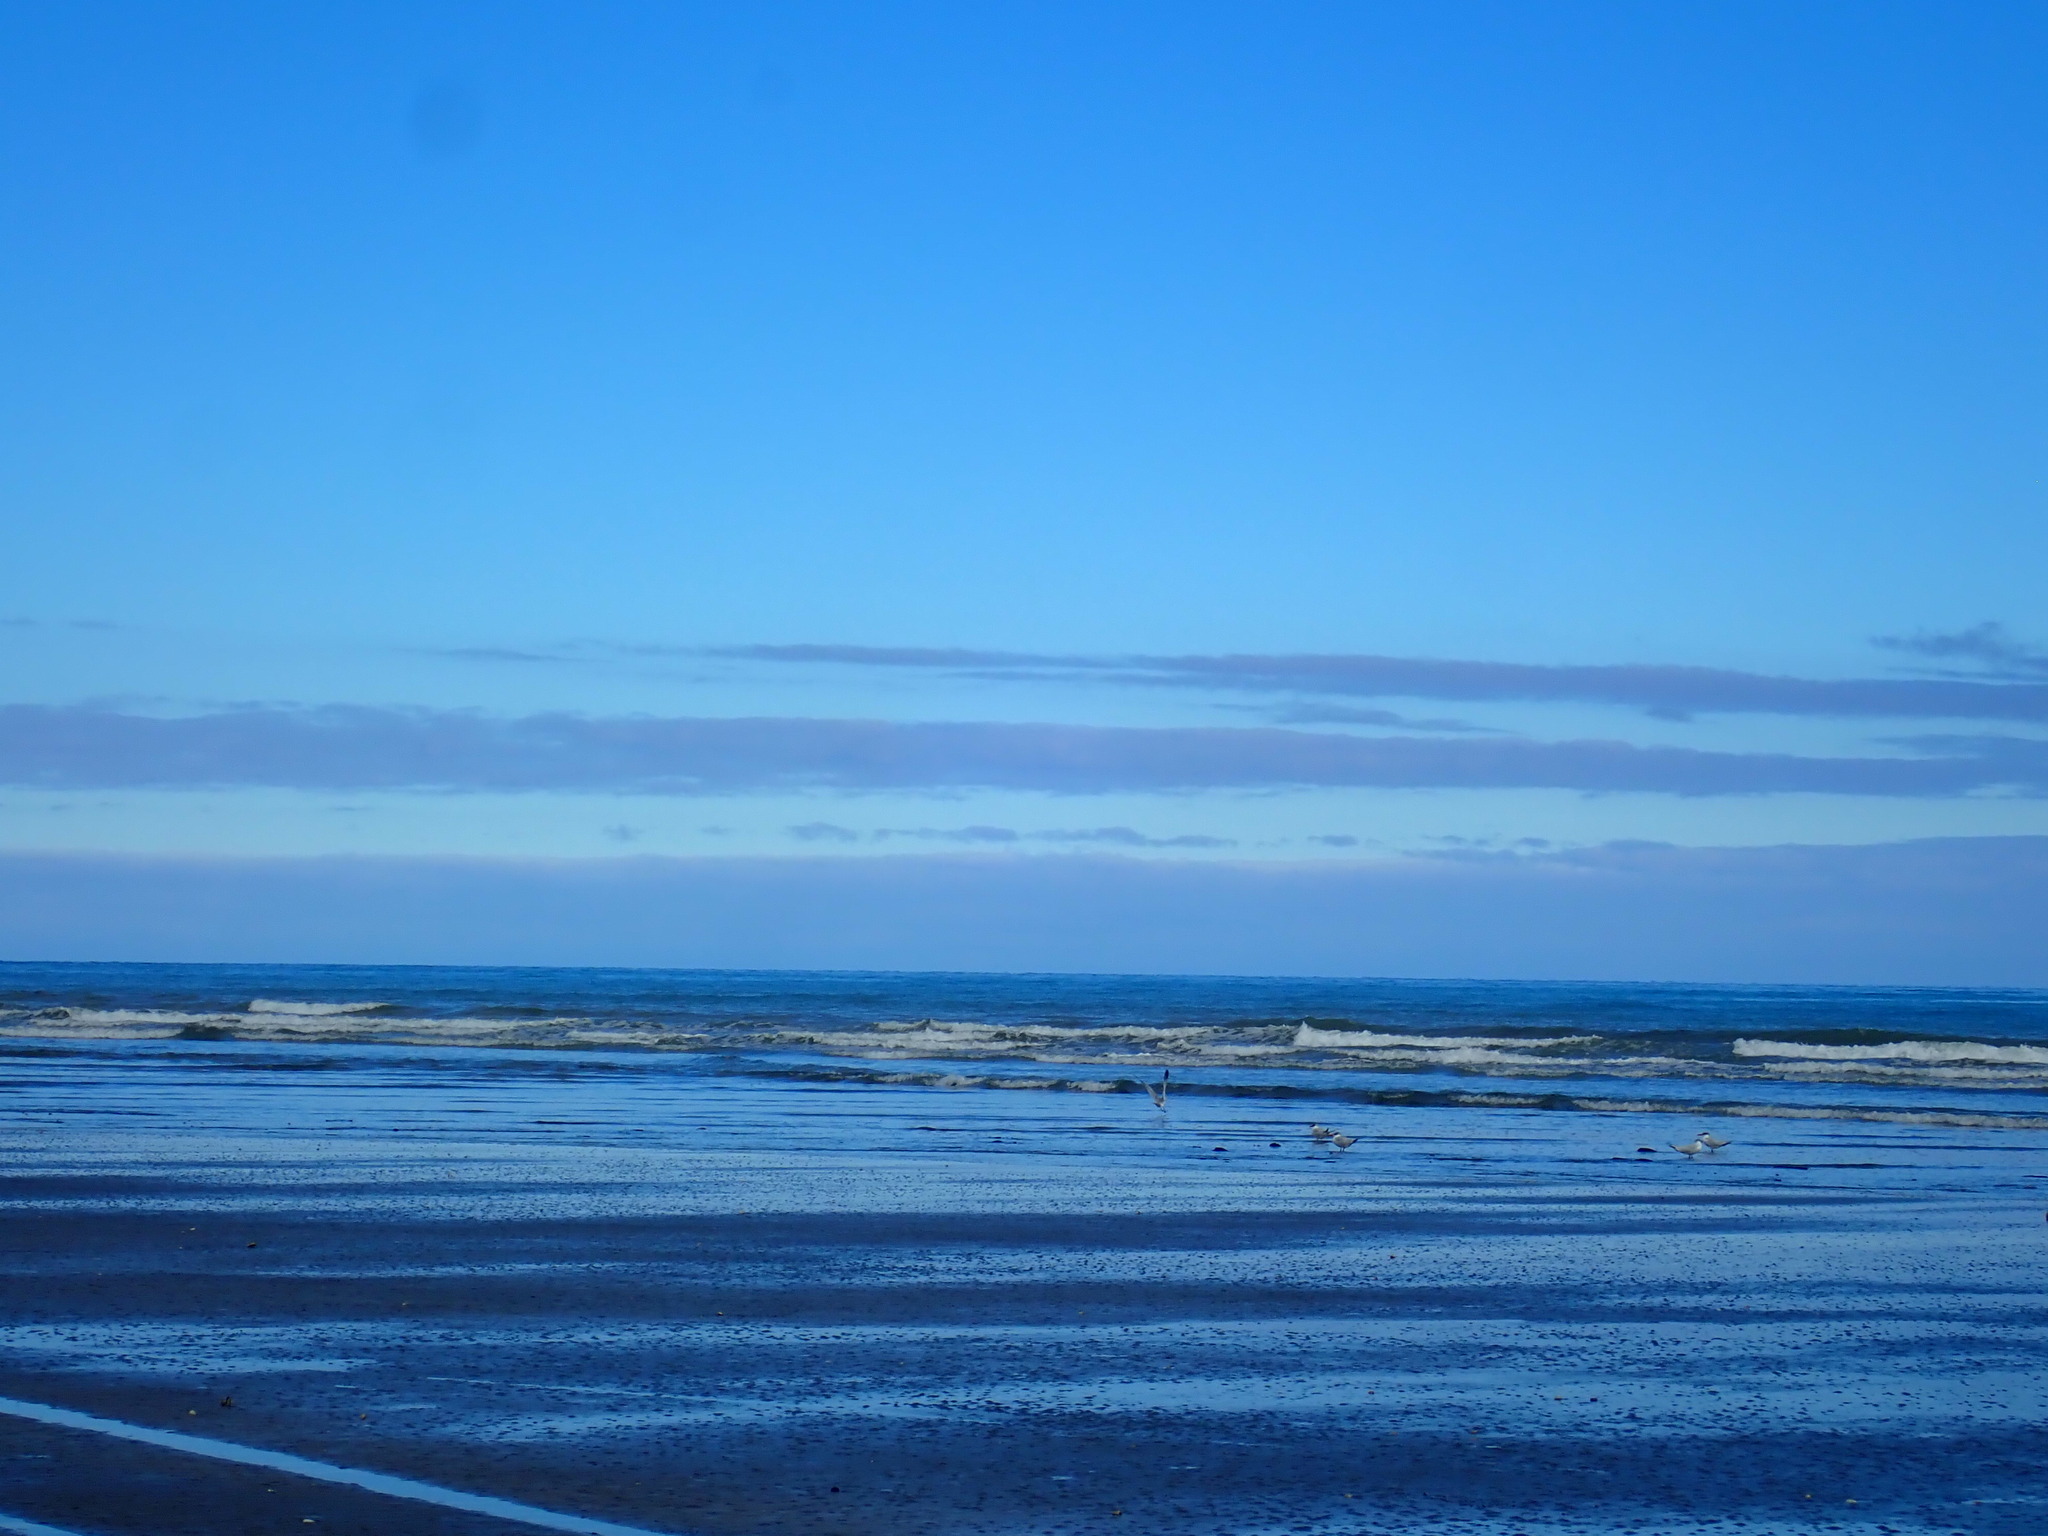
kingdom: Animalia
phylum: Chordata
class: Aves
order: Charadriiformes
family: Laridae
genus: Hydroprogne
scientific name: Hydroprogne caspia
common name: Caspian tern
